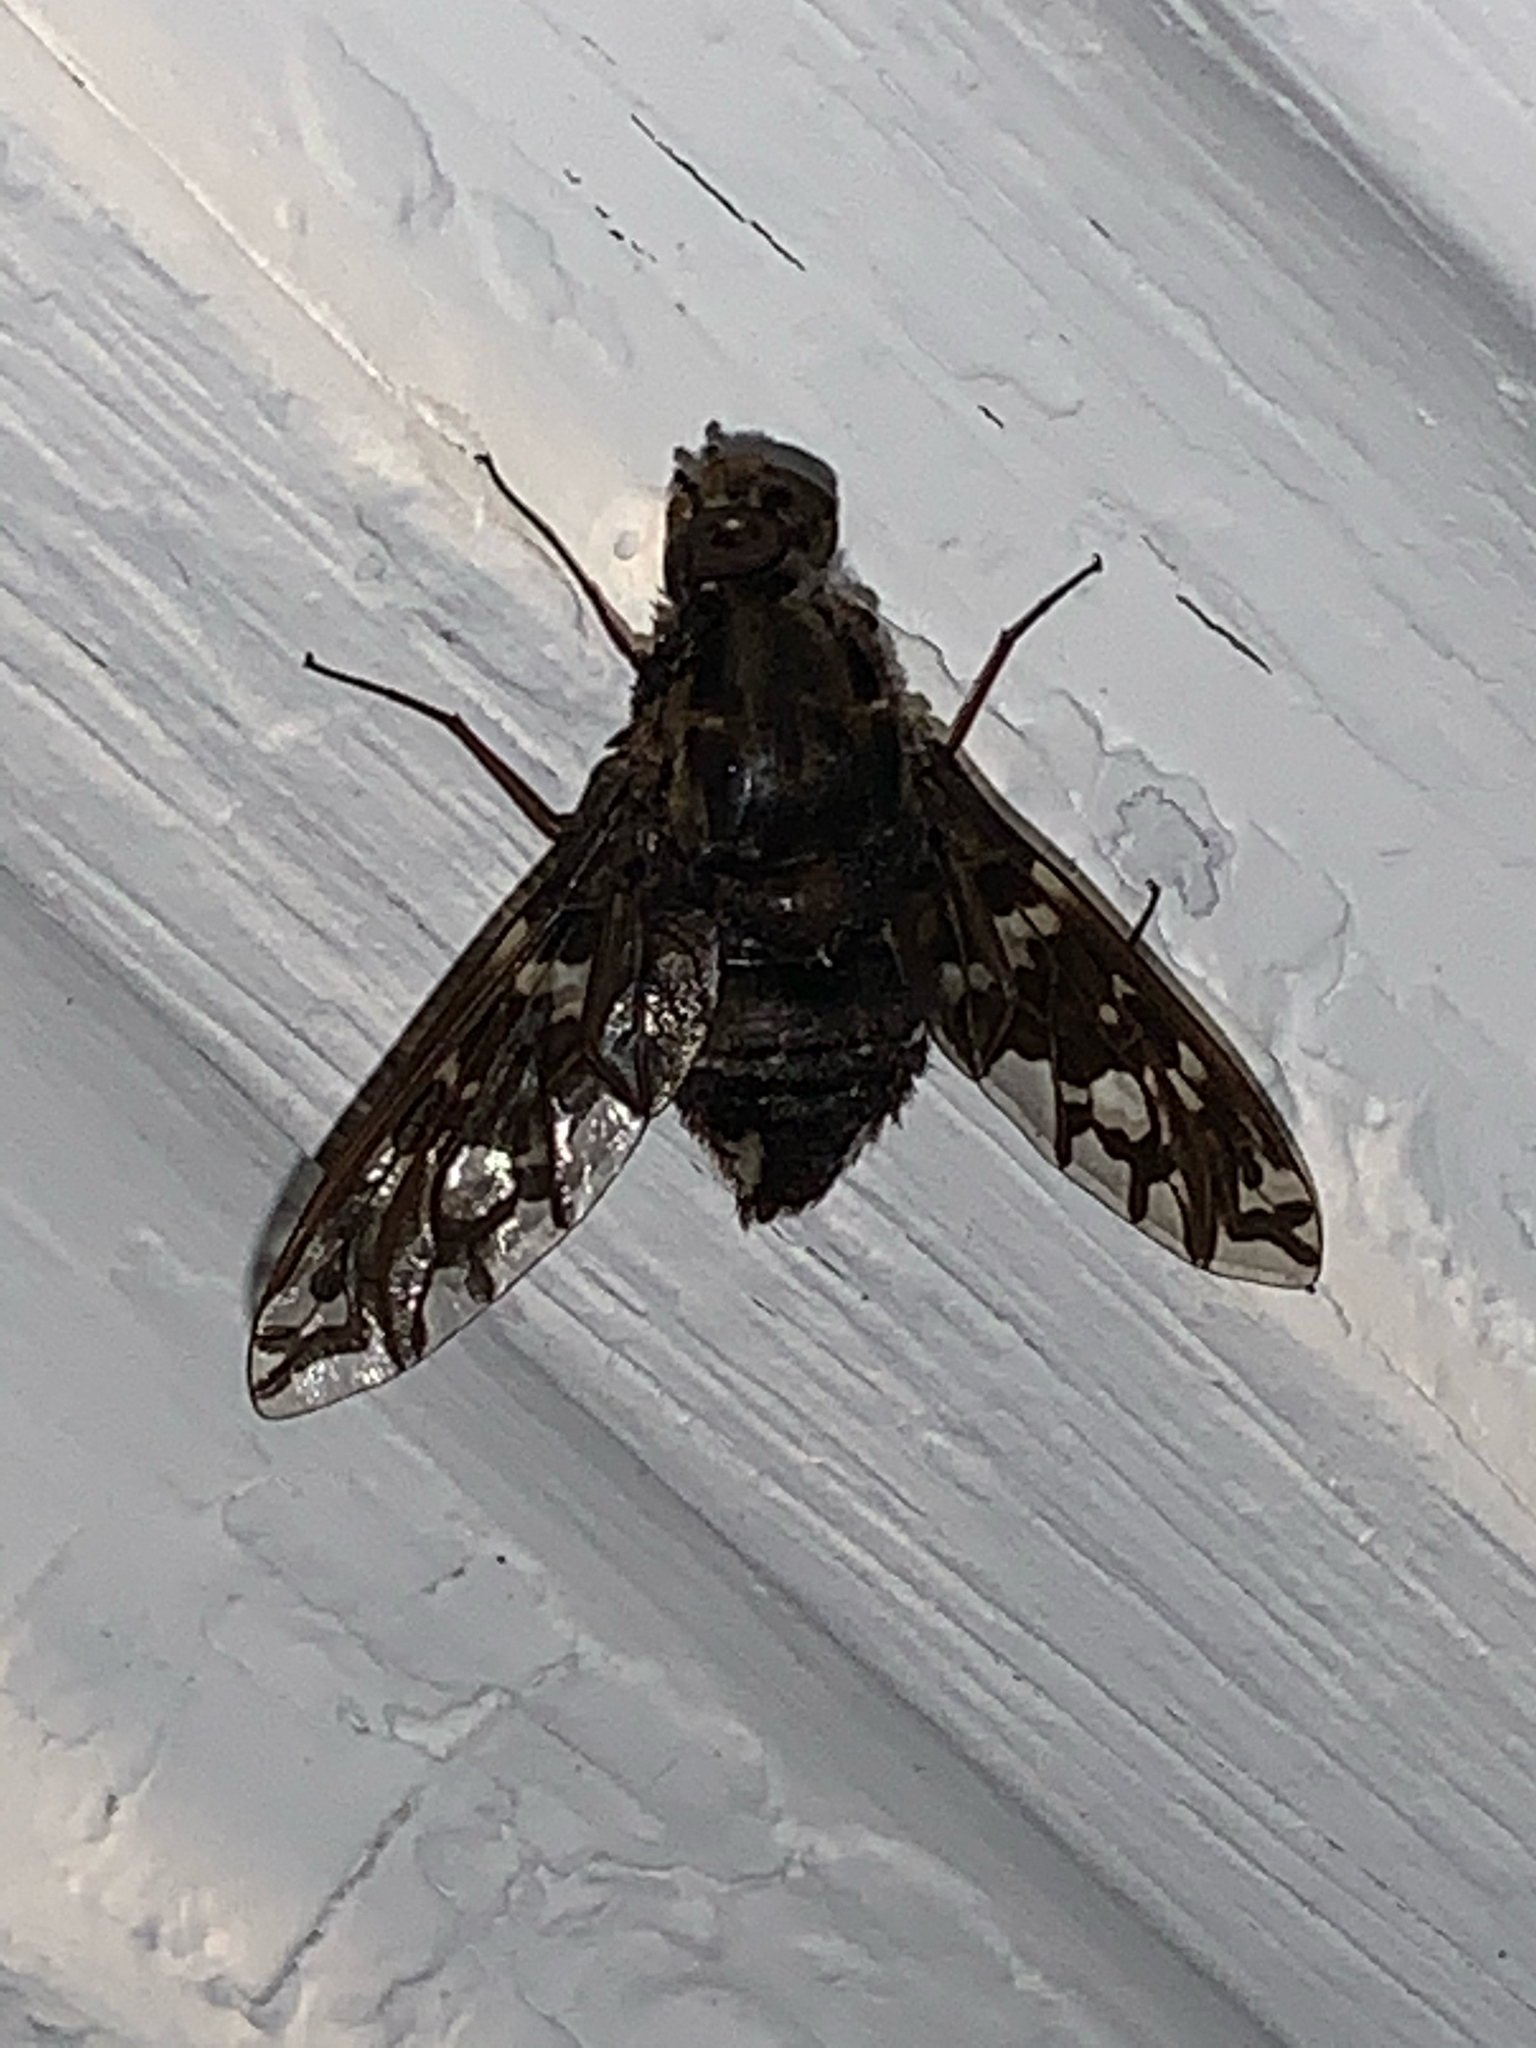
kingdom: Animalia
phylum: Arthropoda
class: Insecta
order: Diptera
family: Bombyliidae
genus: Xenox
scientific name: Xenox tigrinus
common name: Tiger bee fly
